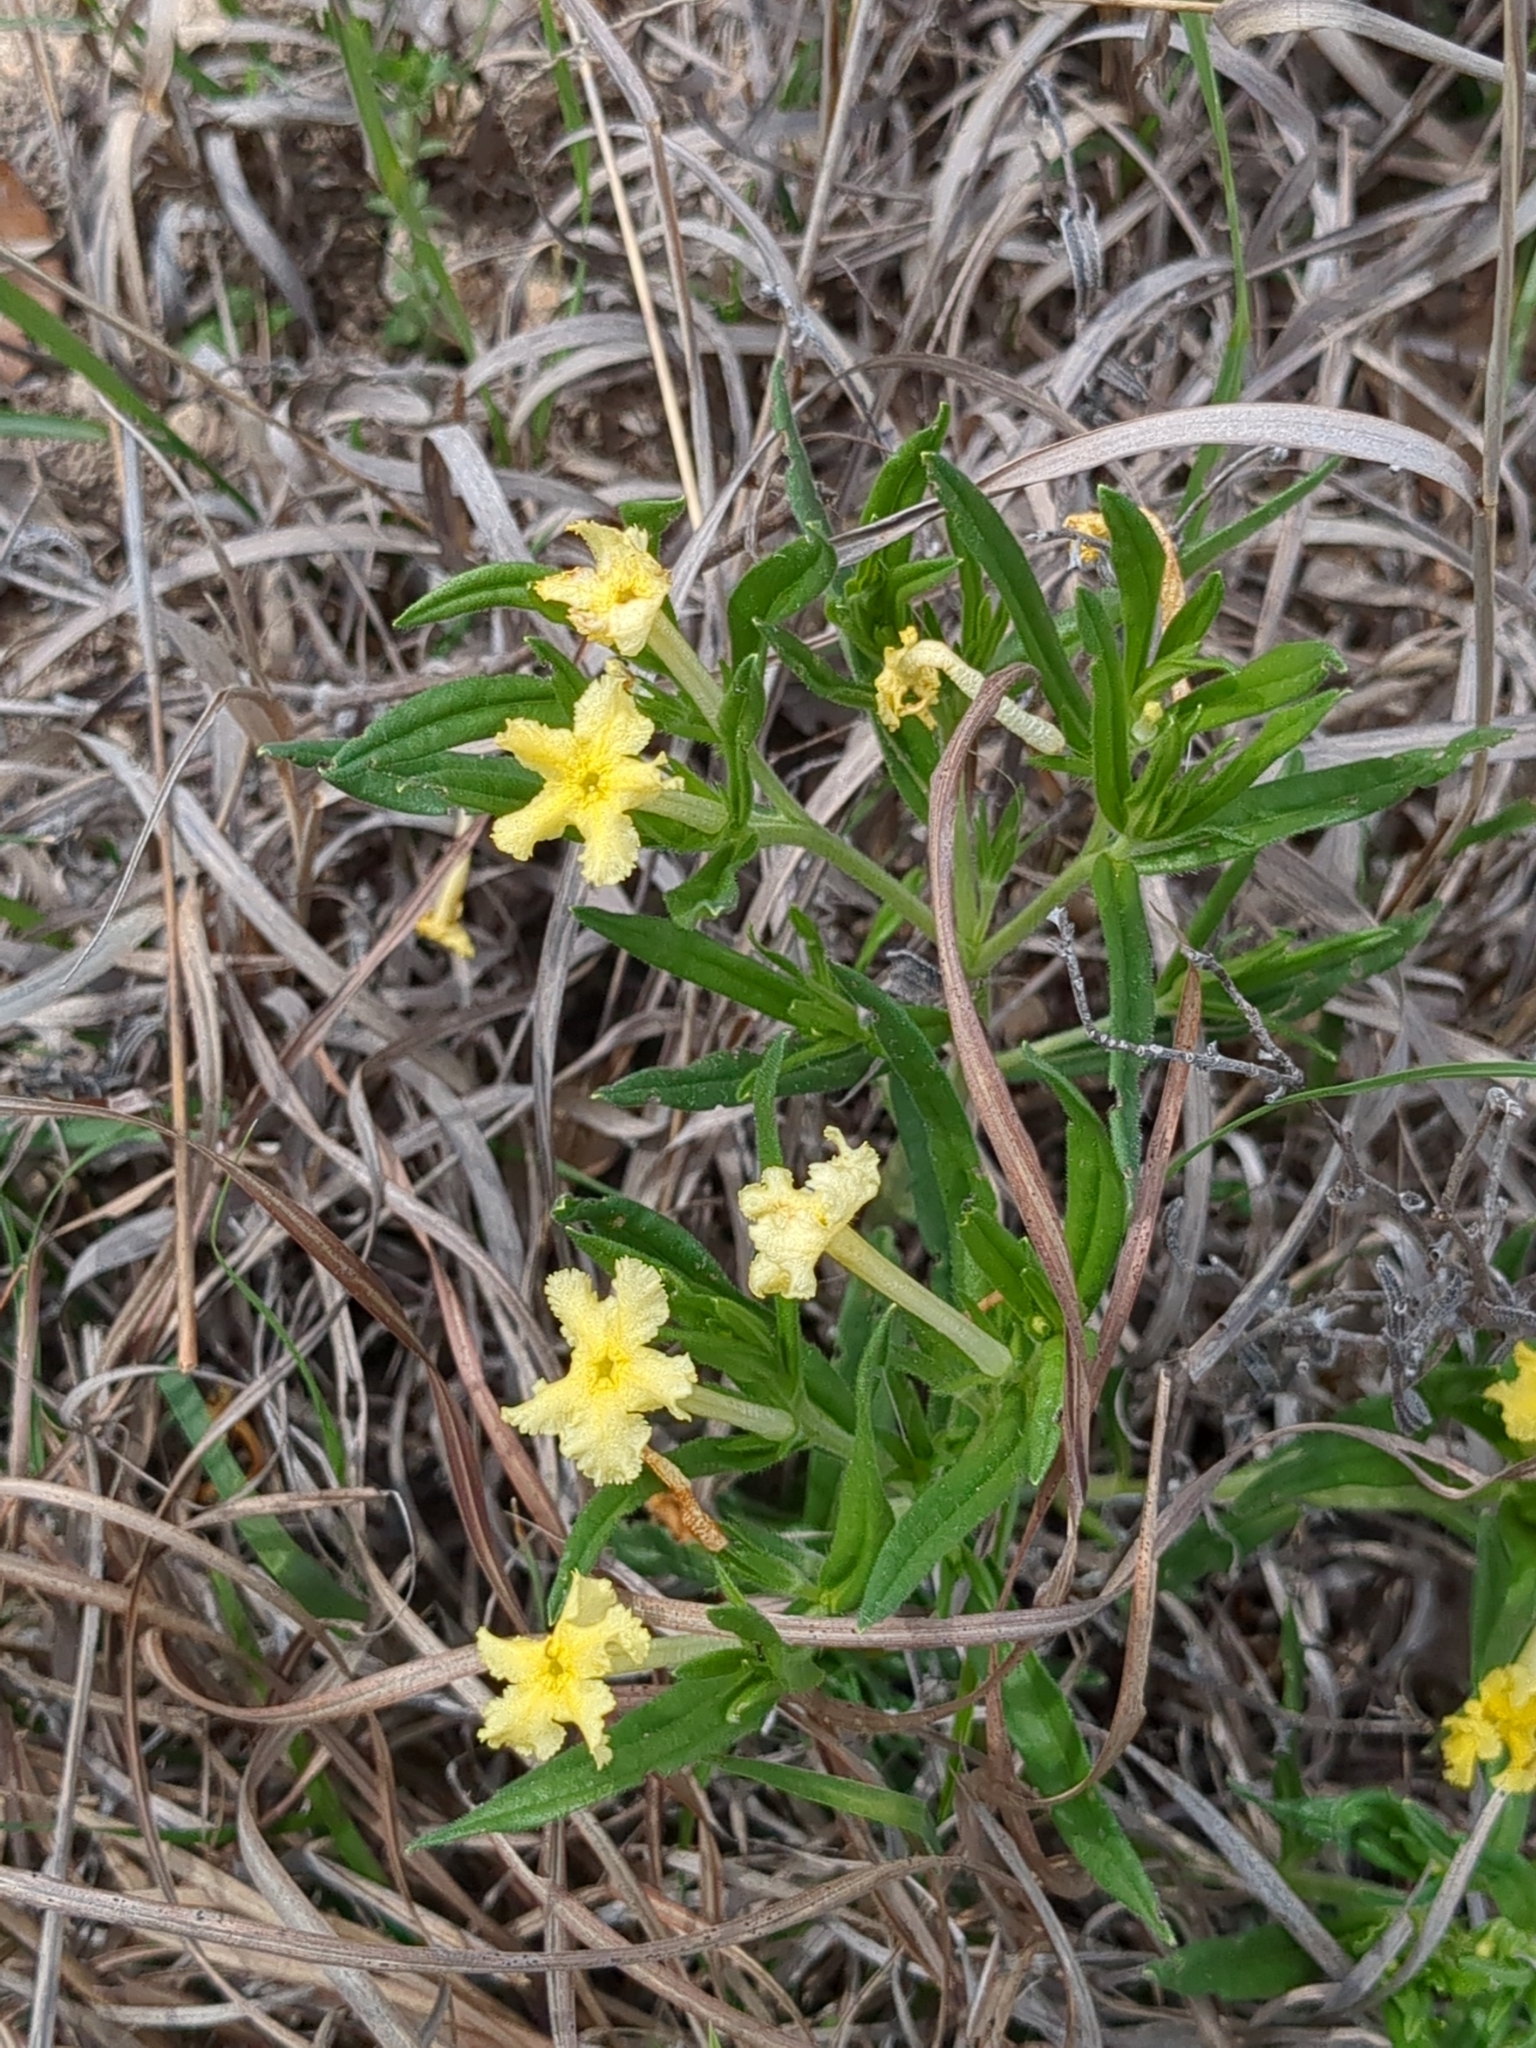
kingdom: Plantae
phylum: Tracheophyta
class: Magnoliopsida
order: Boraginales
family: Boraginaceae
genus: Lithospermum
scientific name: Lithospermum incisum
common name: Fringed gromwell
